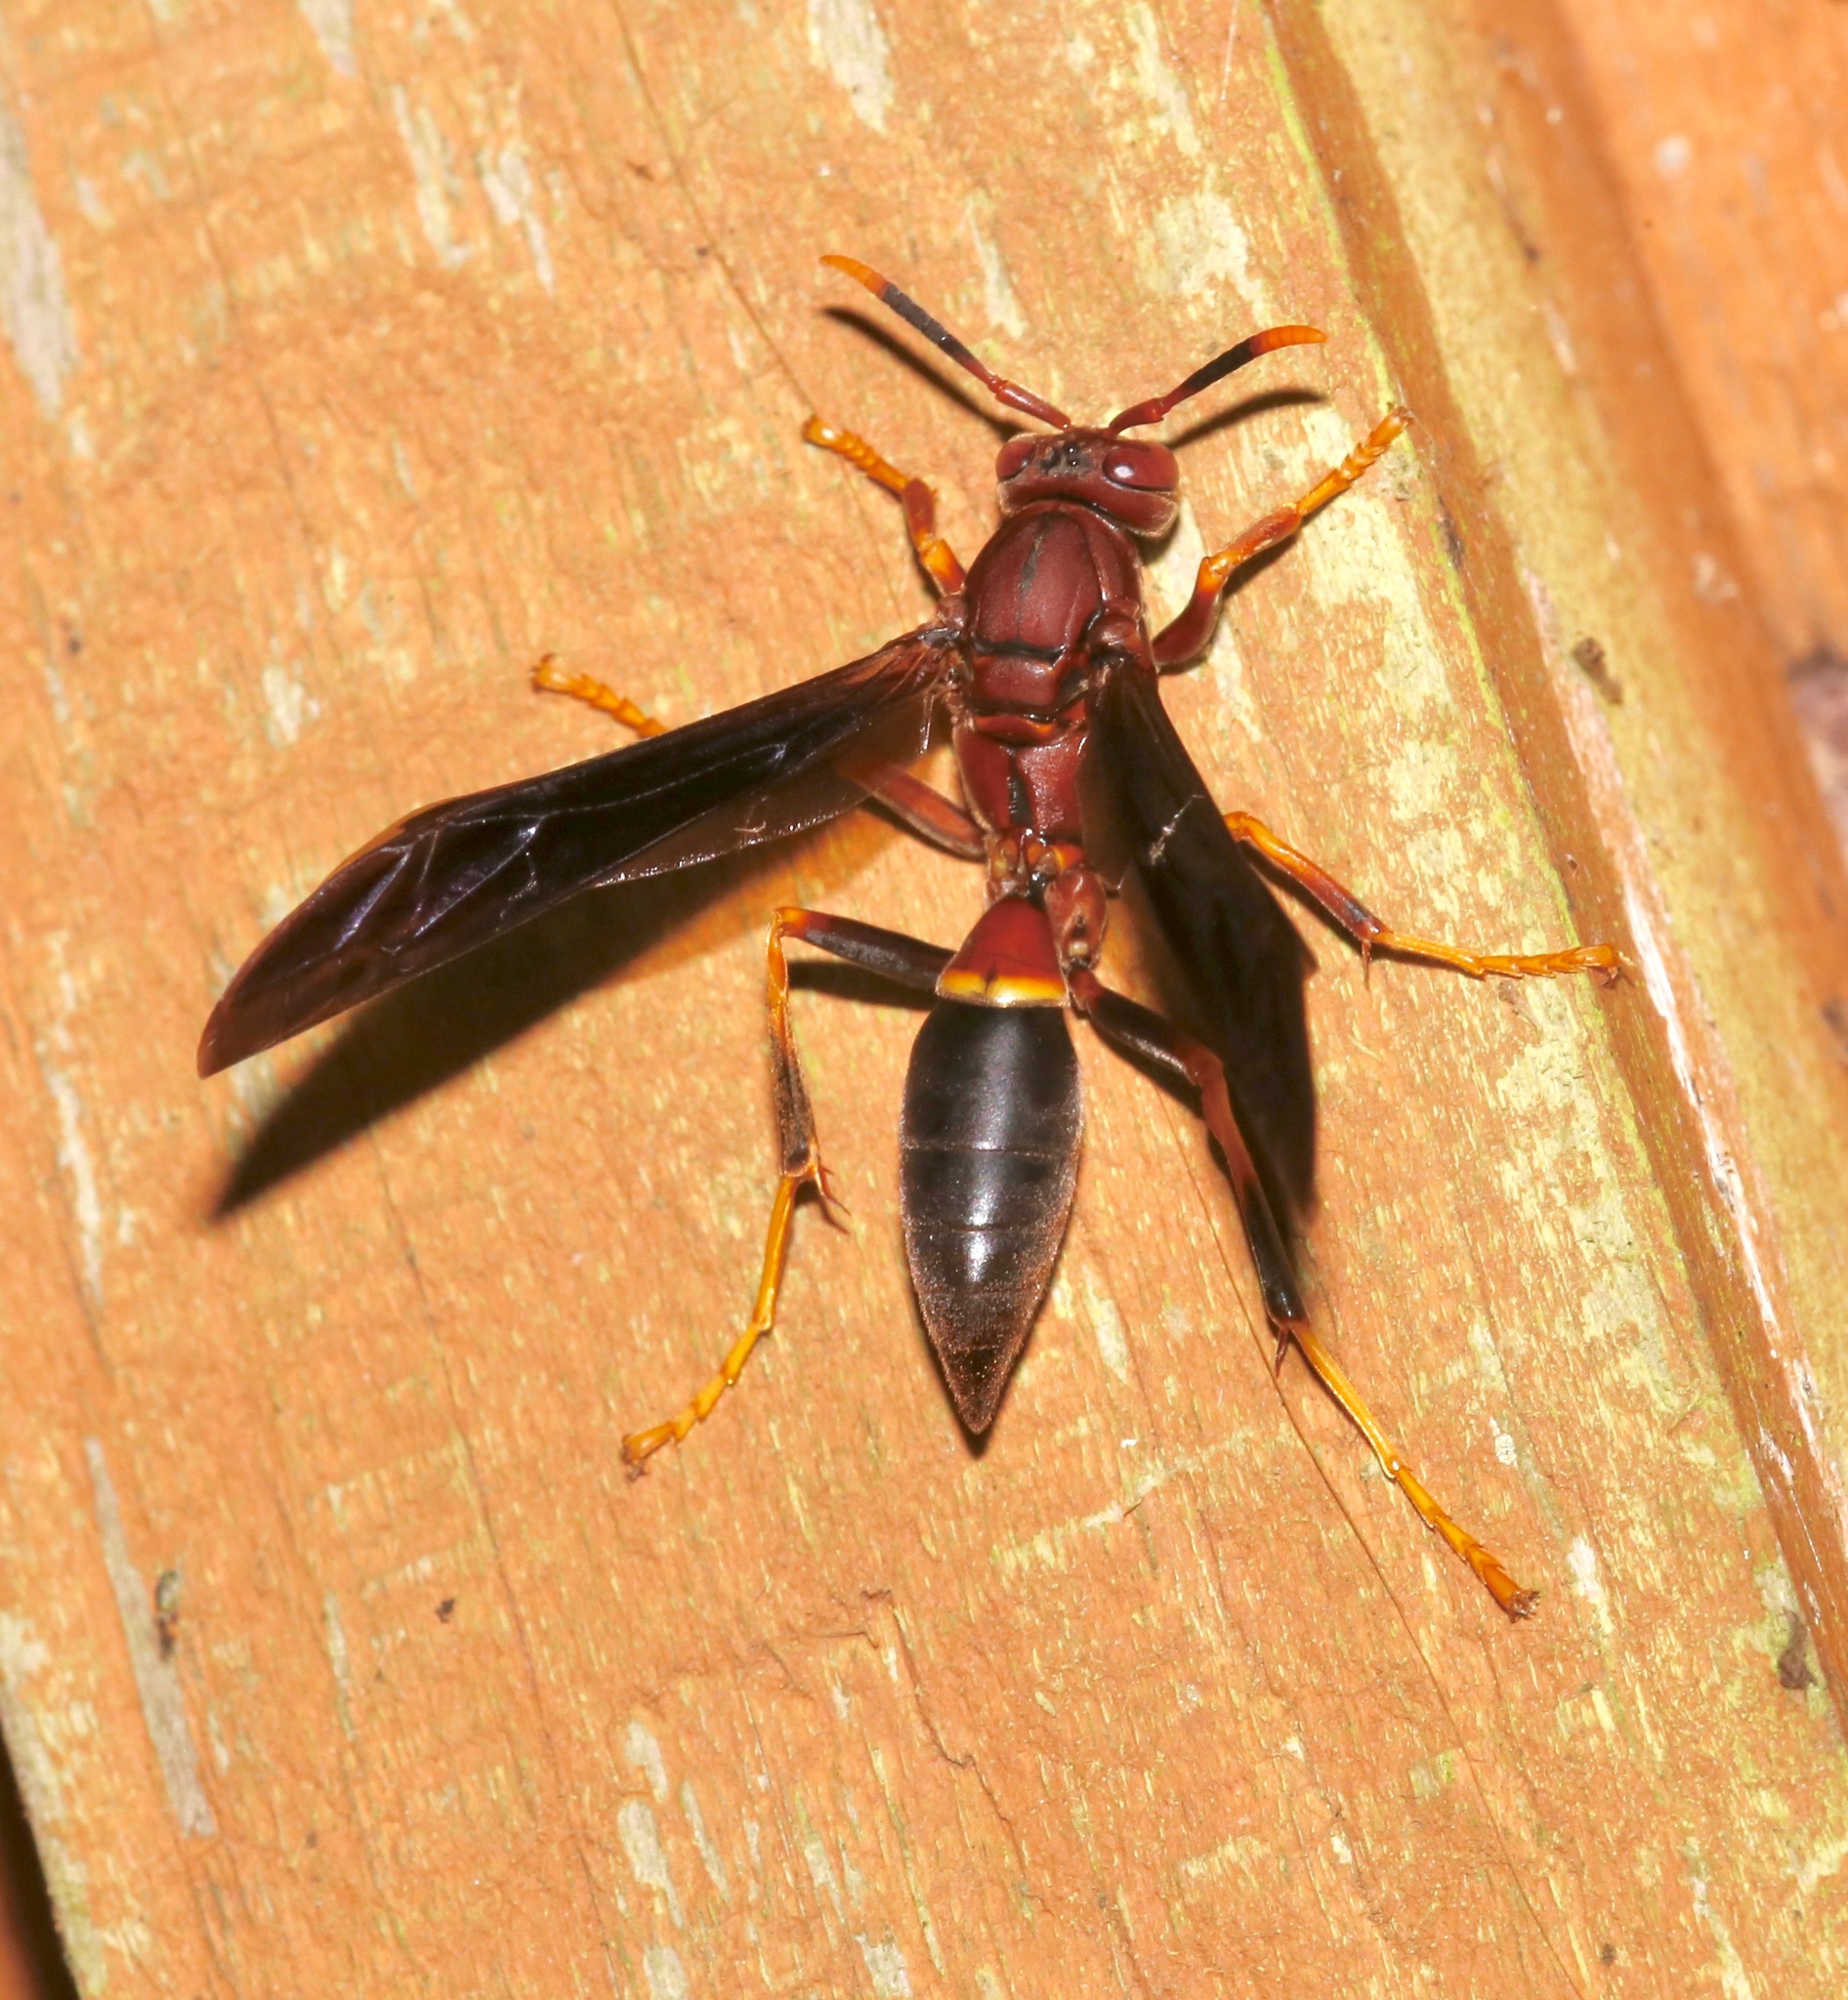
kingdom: Animalia
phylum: Arthropoda
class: Insecta
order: Hymenoptera
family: Eumenidae
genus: Polistes
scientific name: Polistes annularis
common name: Ringed paper wasp
